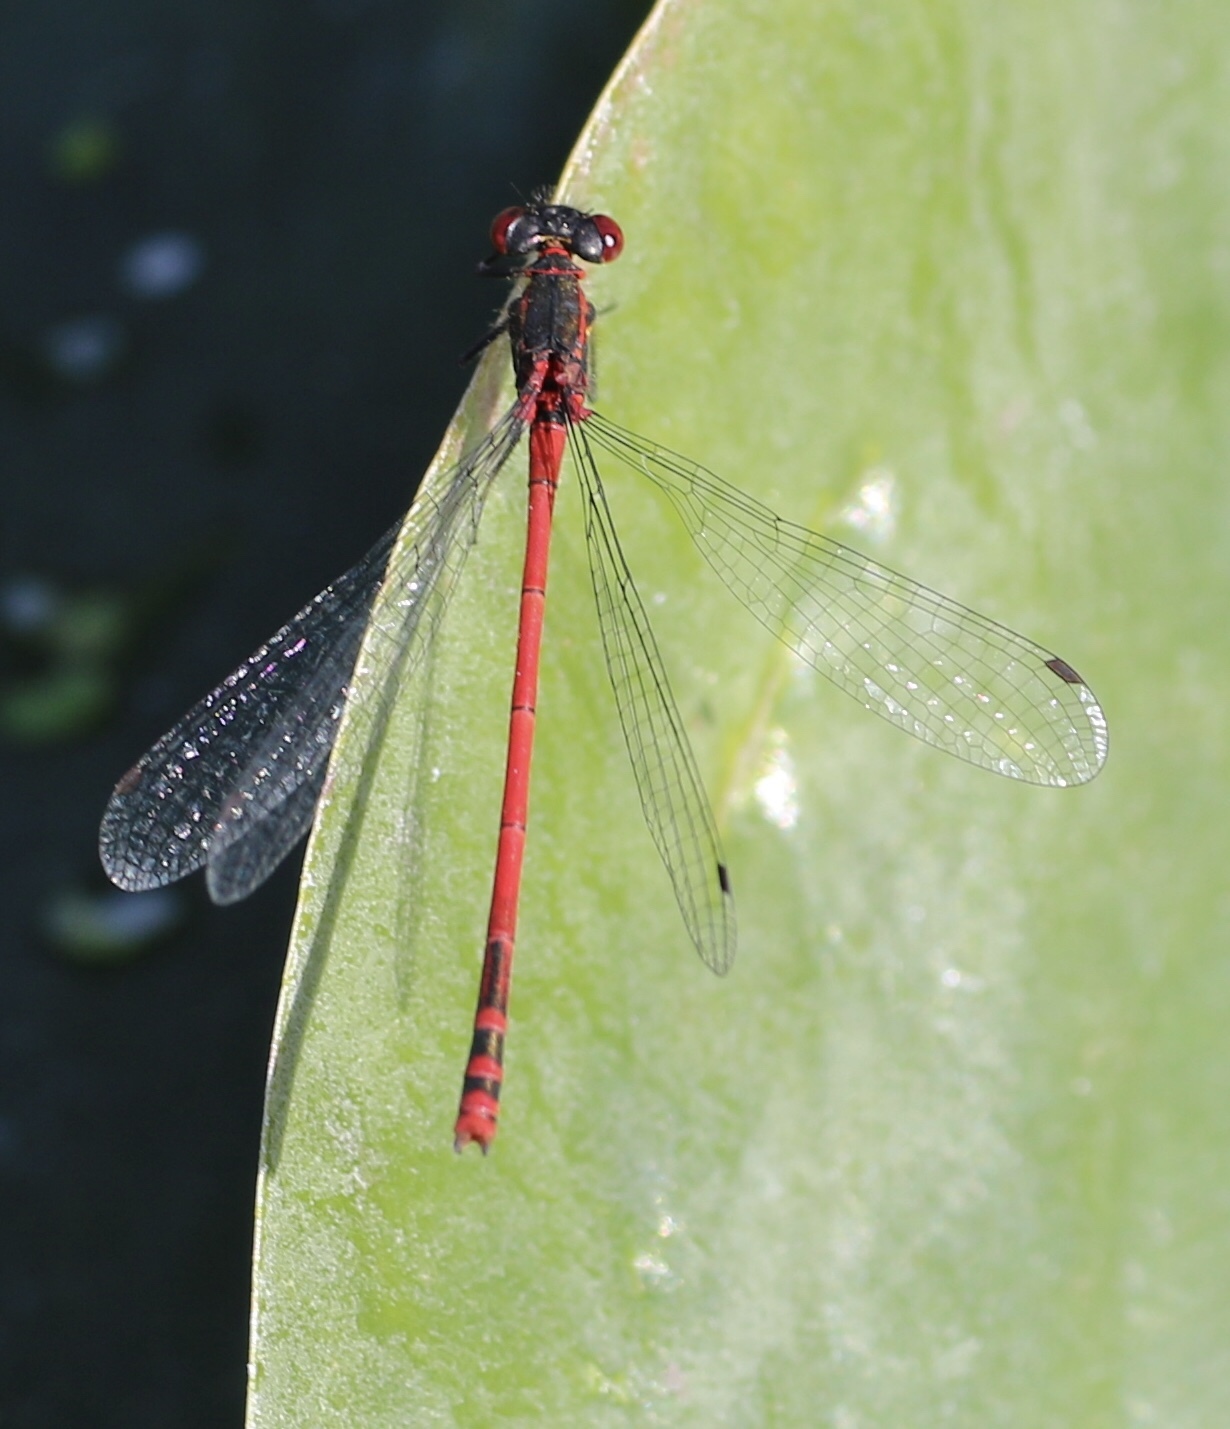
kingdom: Animalia
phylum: Arthropoda
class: Insecta
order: Odonata
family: Coenagrionidae
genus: Pyrrhosoma
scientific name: Pyrrhosoma nymphula
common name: Large red damsel
